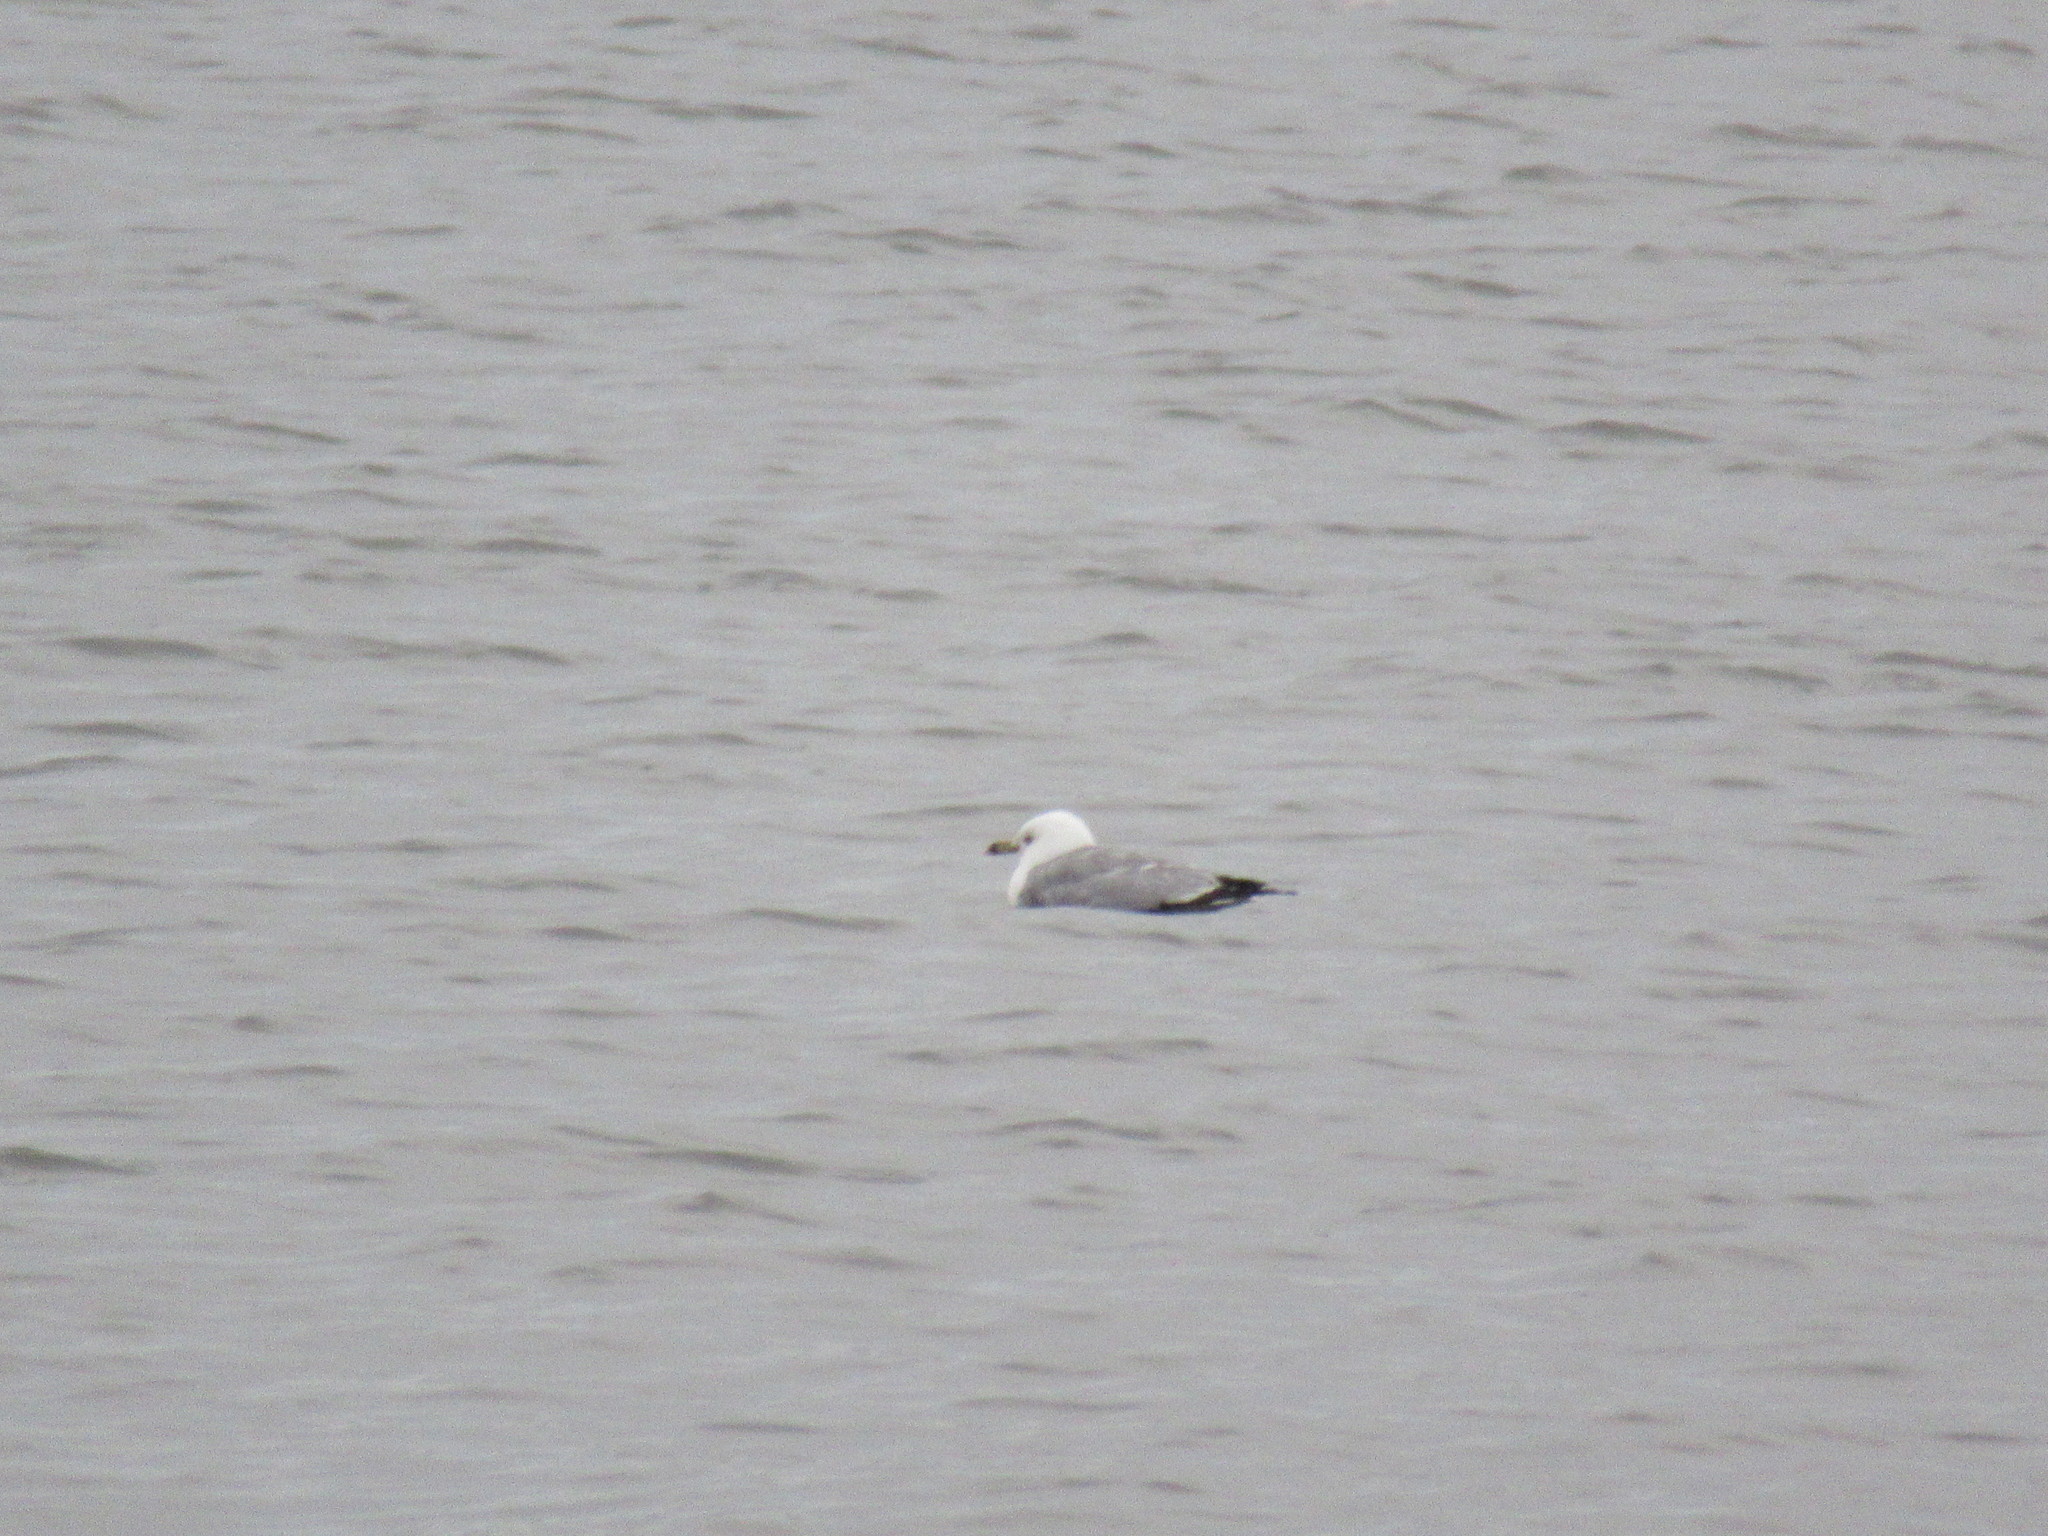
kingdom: Animalia
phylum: Chordata
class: Aves
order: Charadriiformes
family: Laridae
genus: Larus
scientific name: Larus delawarensis
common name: Ring-billed gull
